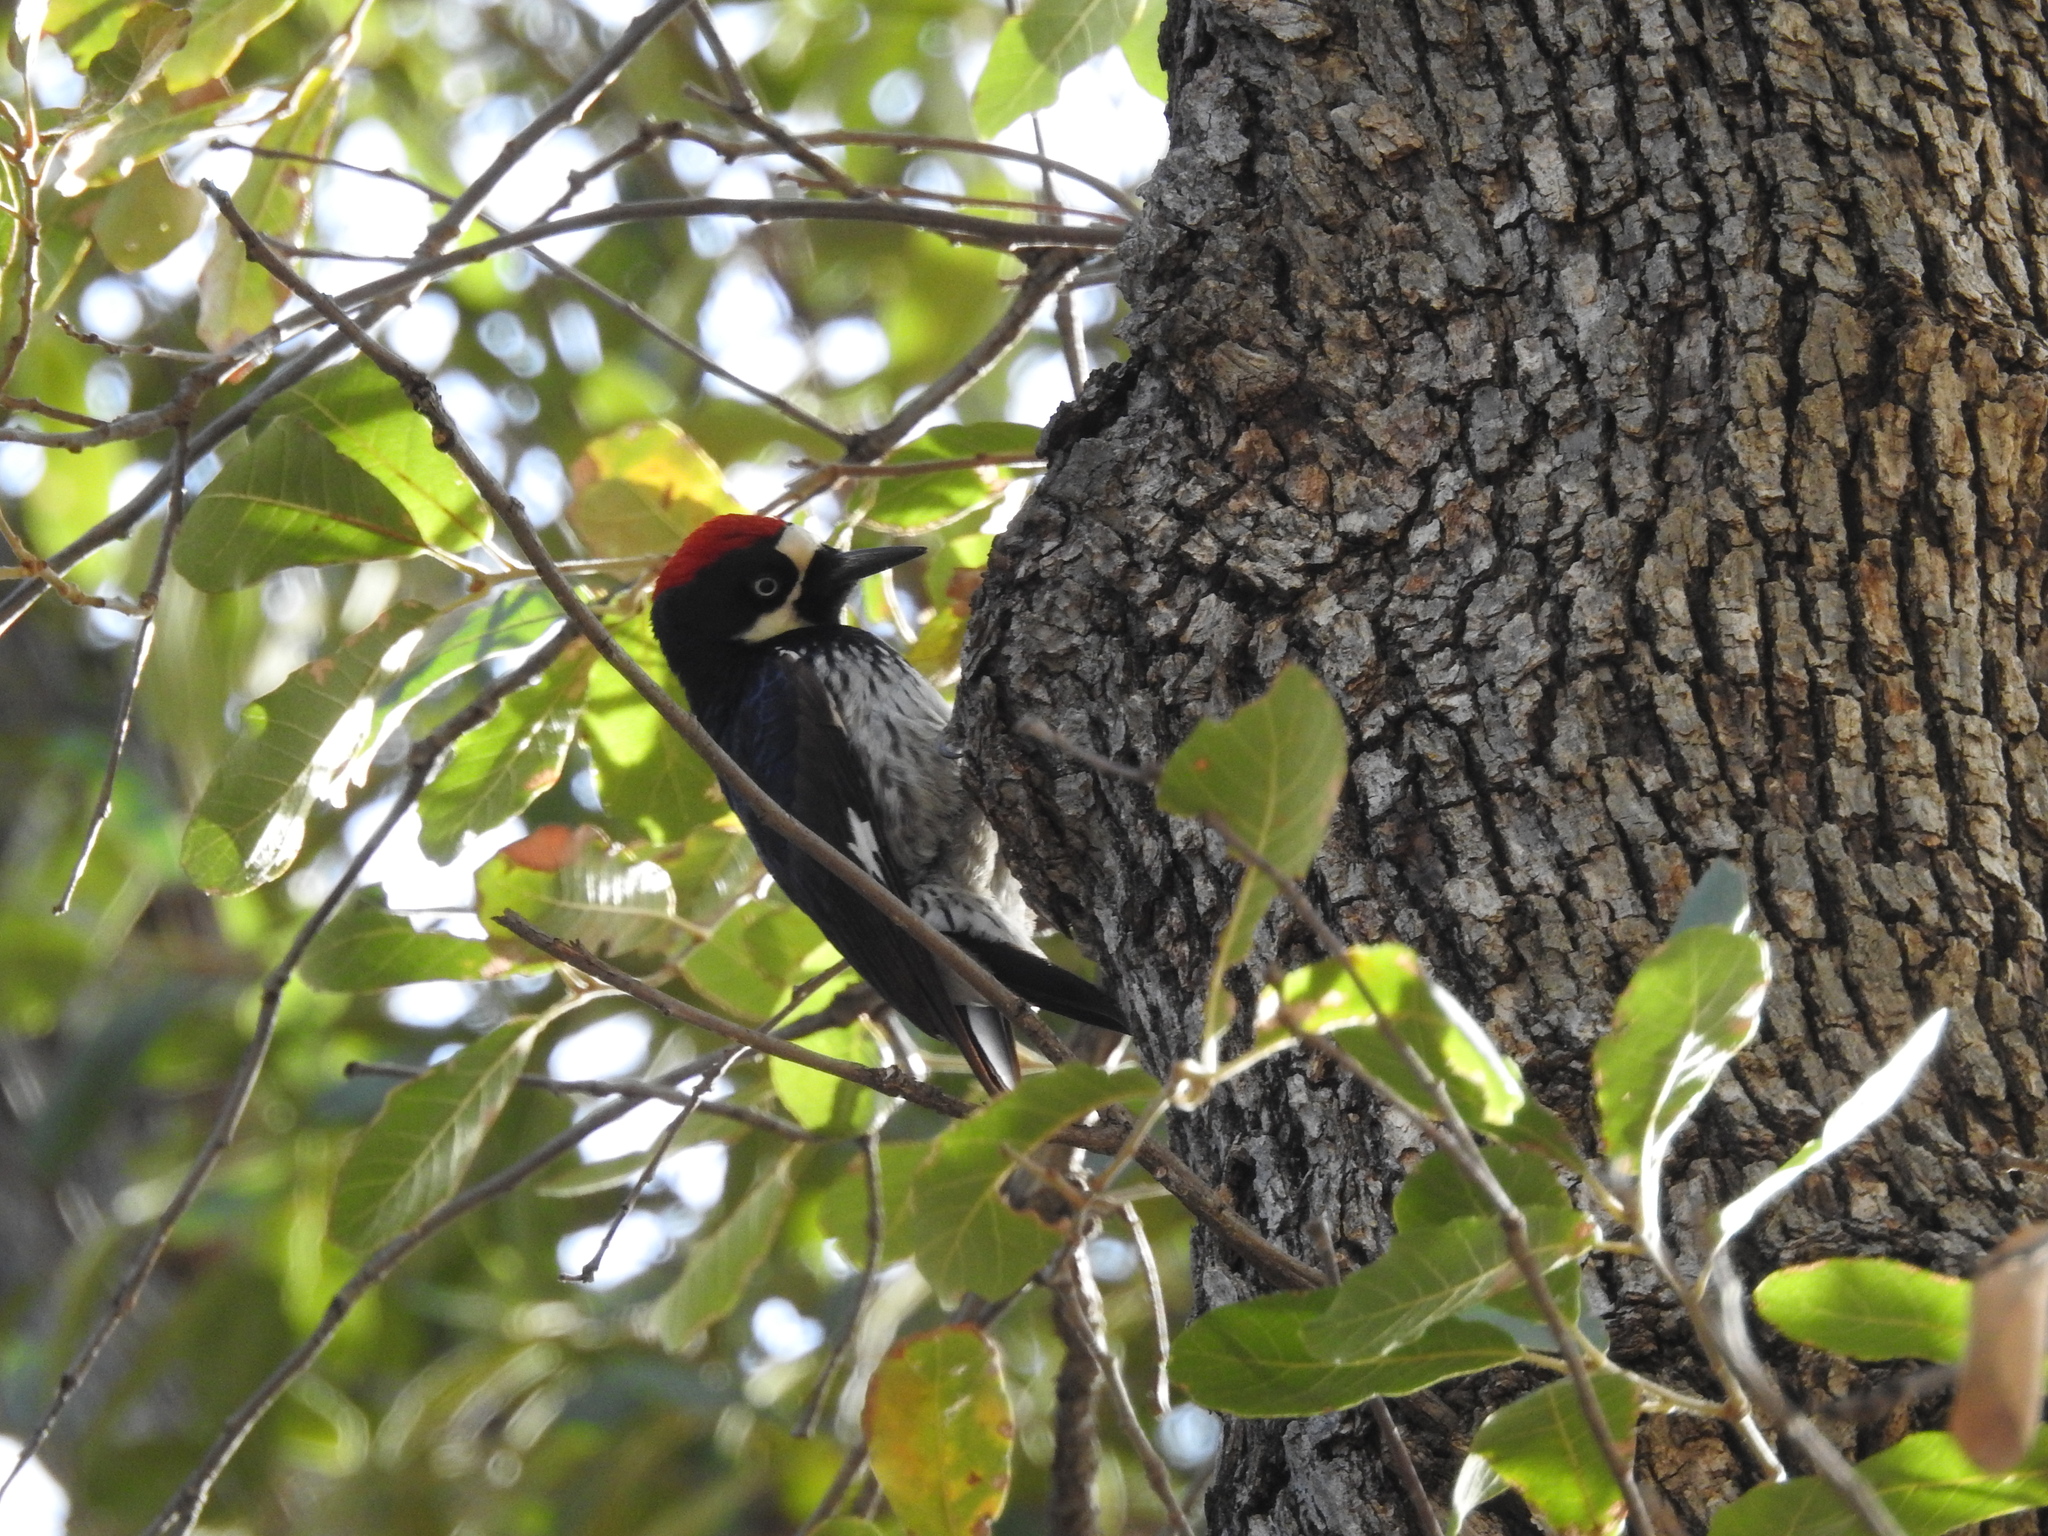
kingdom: Animalia
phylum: Chordata
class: Aves
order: Piciformes
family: Picidae
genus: Melanerpes
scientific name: Melanerpes formicivorus
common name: Acorn woodpecker
